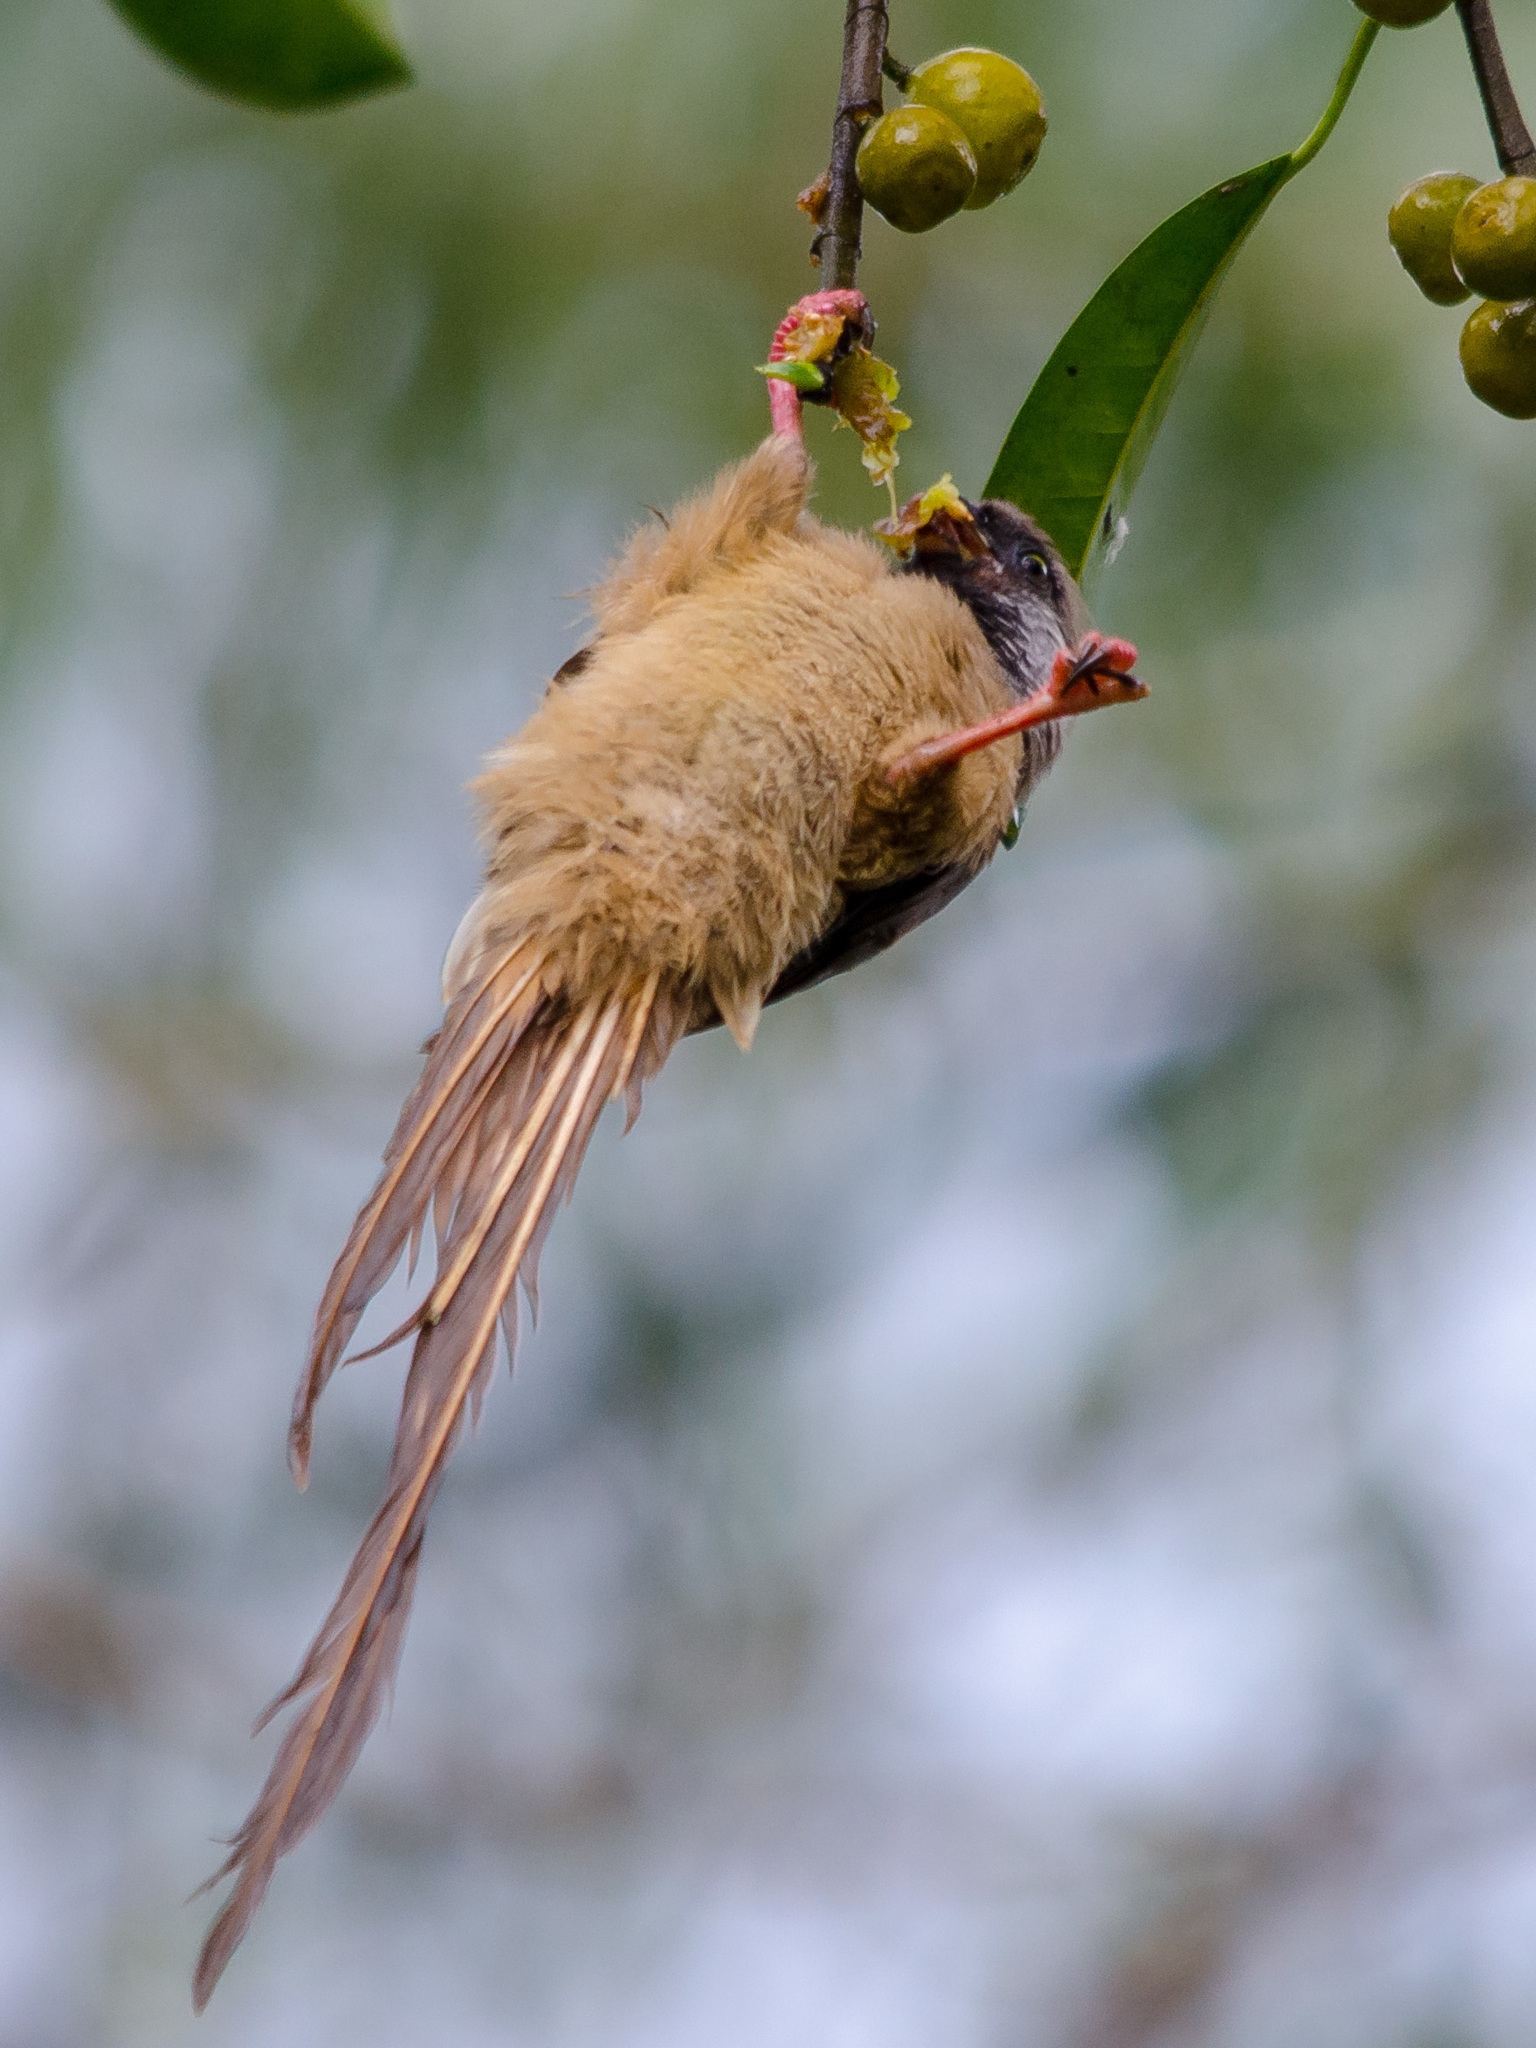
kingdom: Animalia
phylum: Chordata
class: Aves
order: Coliiformes
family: Coliidae
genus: Colius
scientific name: Colius striatus
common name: Speckled mousebird
